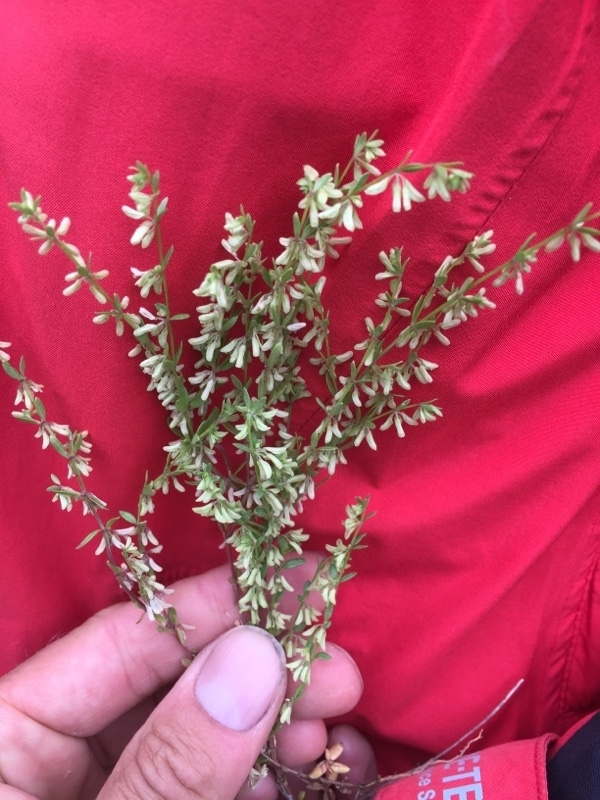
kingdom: Plantae
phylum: Tracheophyta
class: Magnoliopsida
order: Gentianales
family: Rubiaceae
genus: Callipeltis
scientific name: Callipeltis cucullaris
